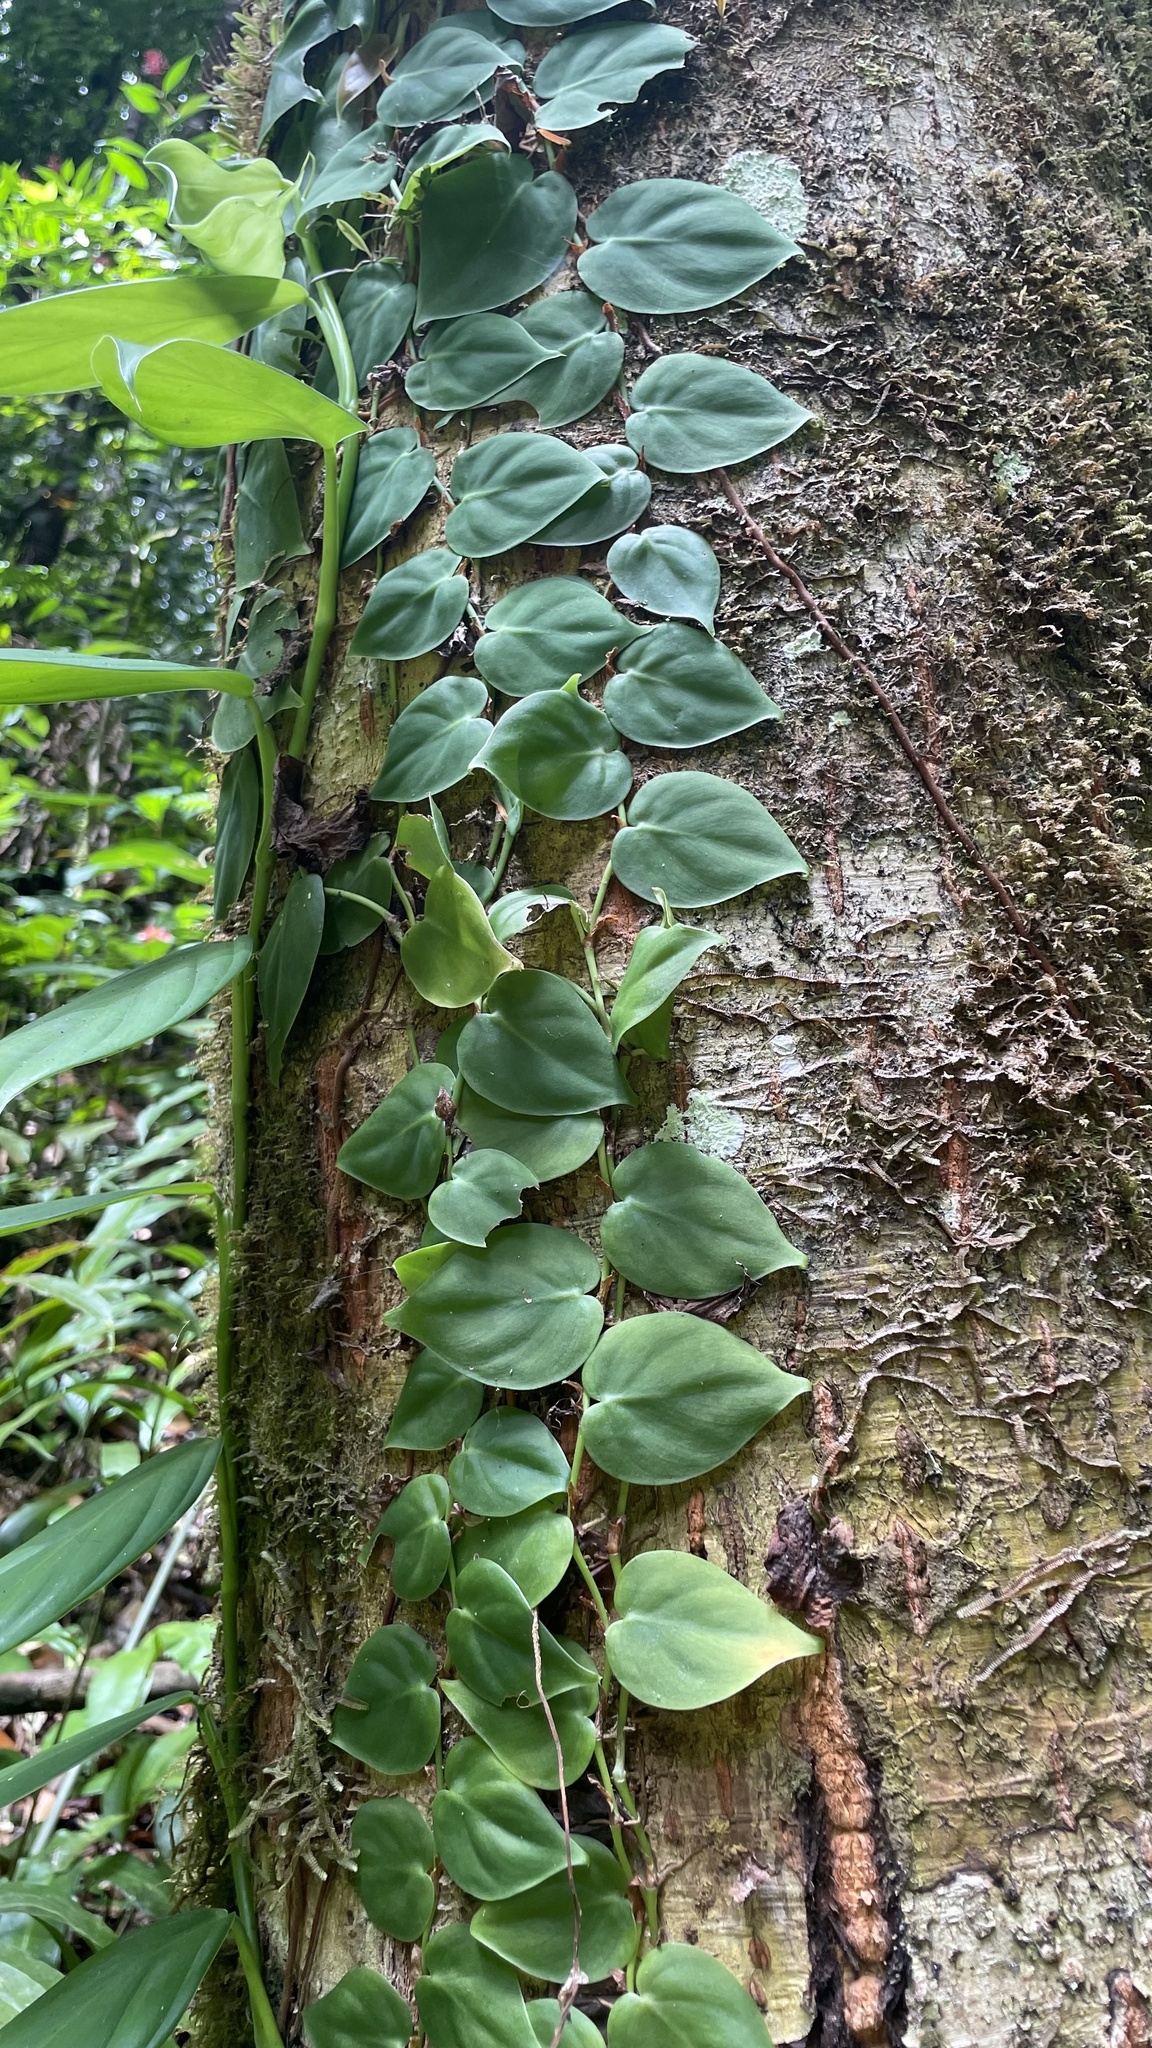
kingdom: Plantae
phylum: Tracheophyta
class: Liliopsida
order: Alismatales
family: Araceae
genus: Philodendron
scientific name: Philodendron hederaceum
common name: Vilevine
